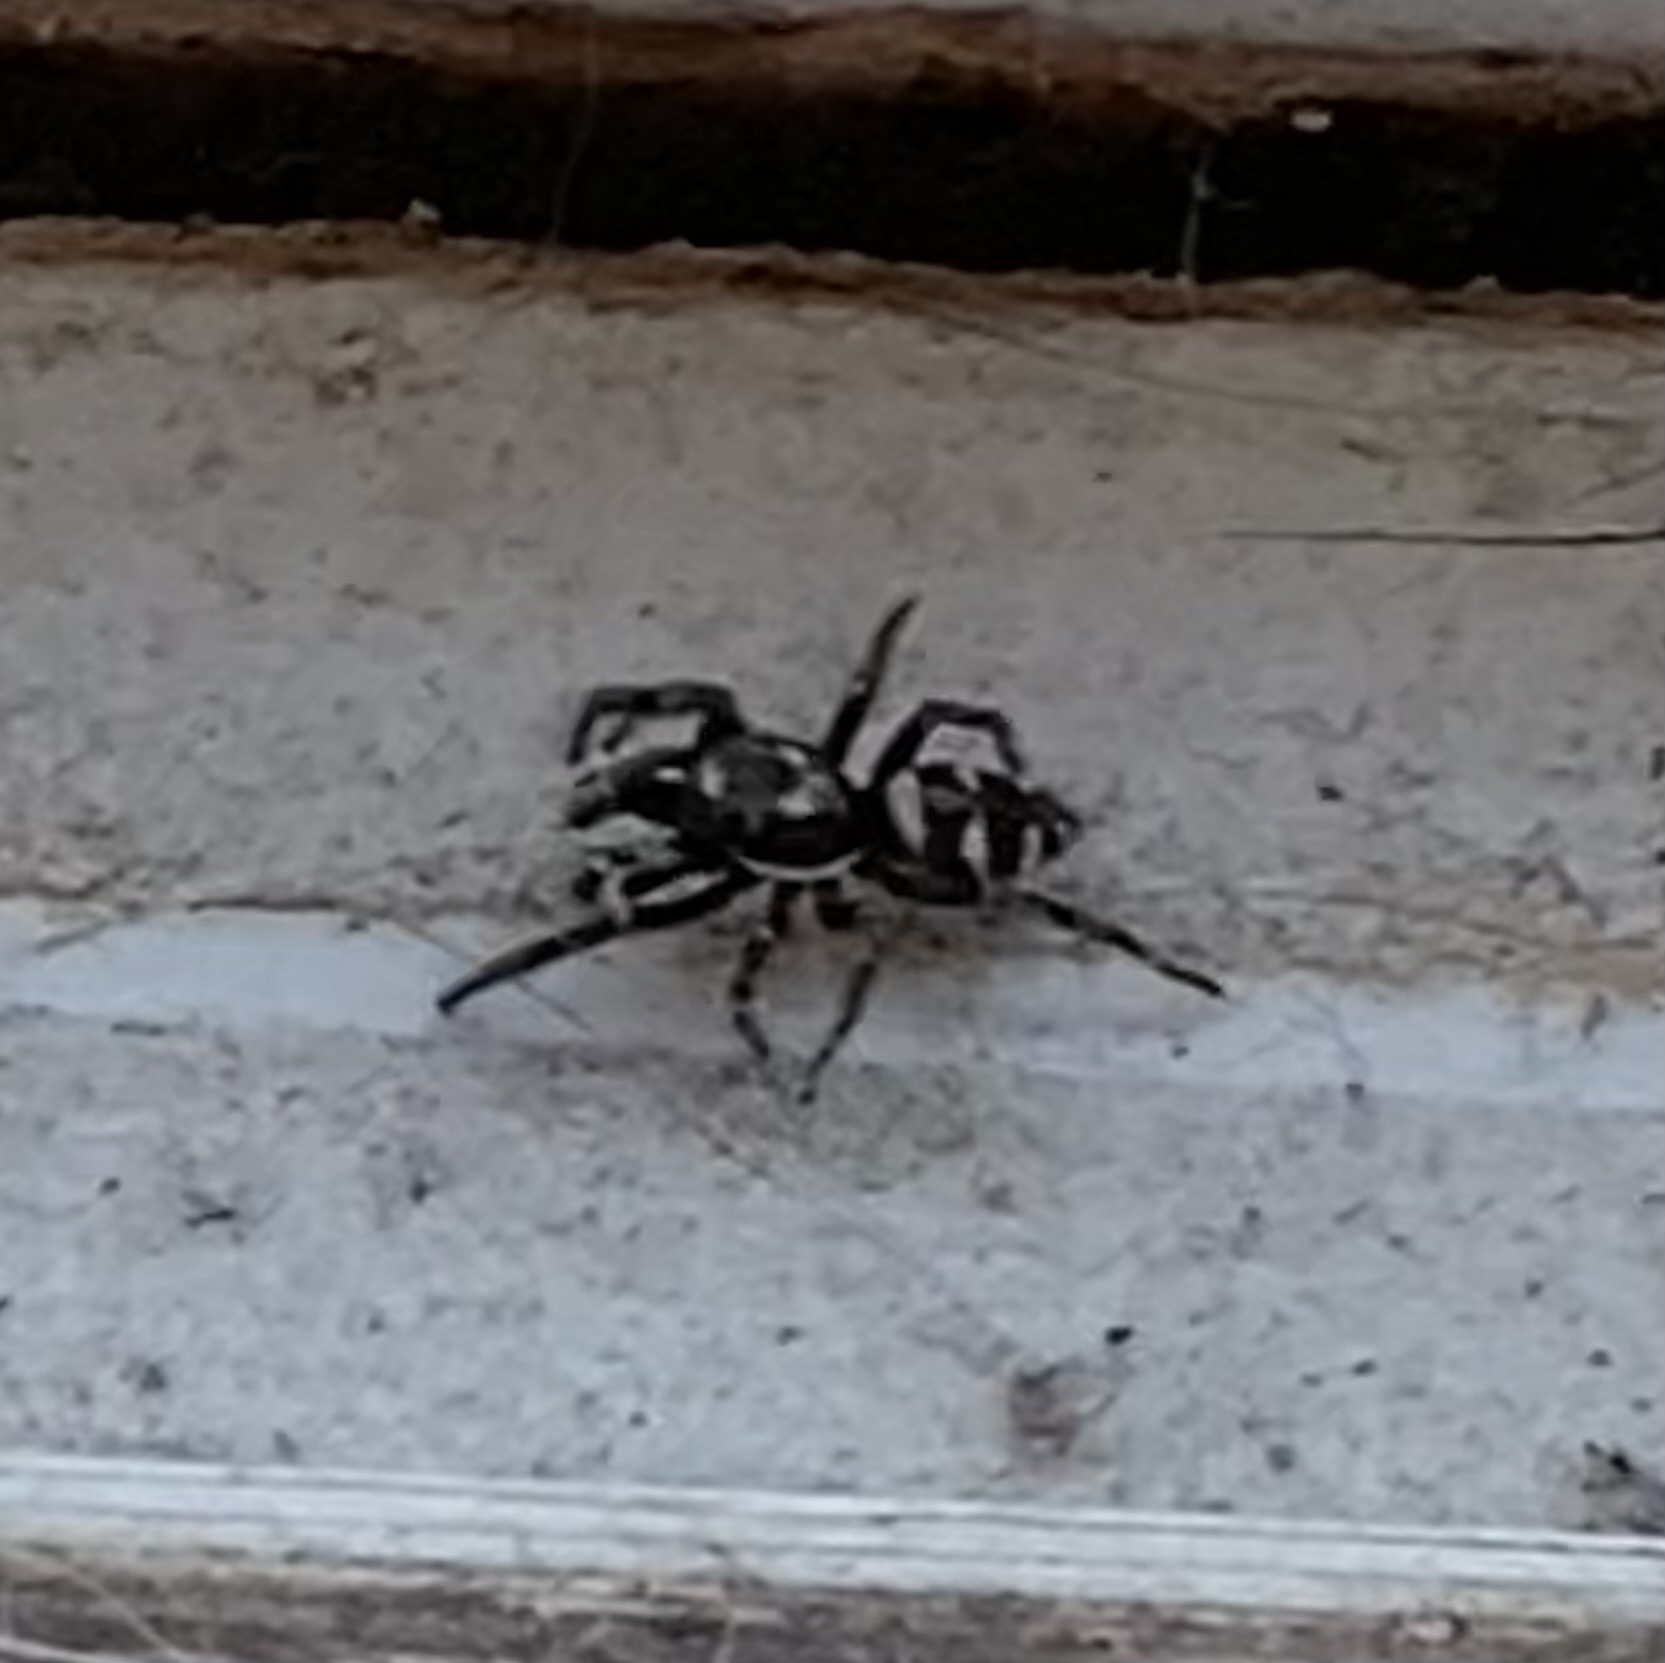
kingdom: Animalia
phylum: Arthropoda
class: Arachnida
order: Araneae
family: Salticidae
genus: Salticus
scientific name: Salticus scenicus
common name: Zebra jumper
